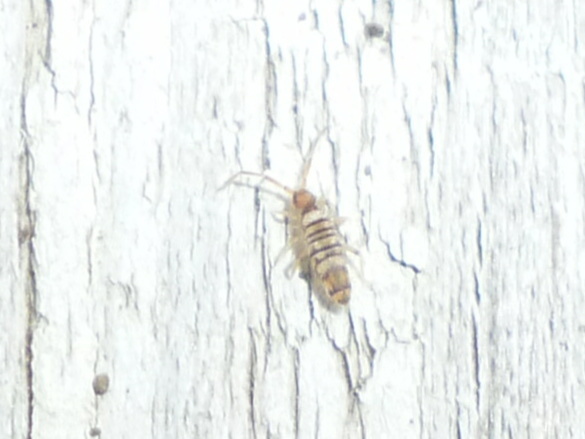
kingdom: Animalia
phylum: Arthropoda
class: Collembola
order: Entomobryomorpha
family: Entomobryidae
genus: Entomobrya
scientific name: Entomobrya atrocincta
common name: Springtail
